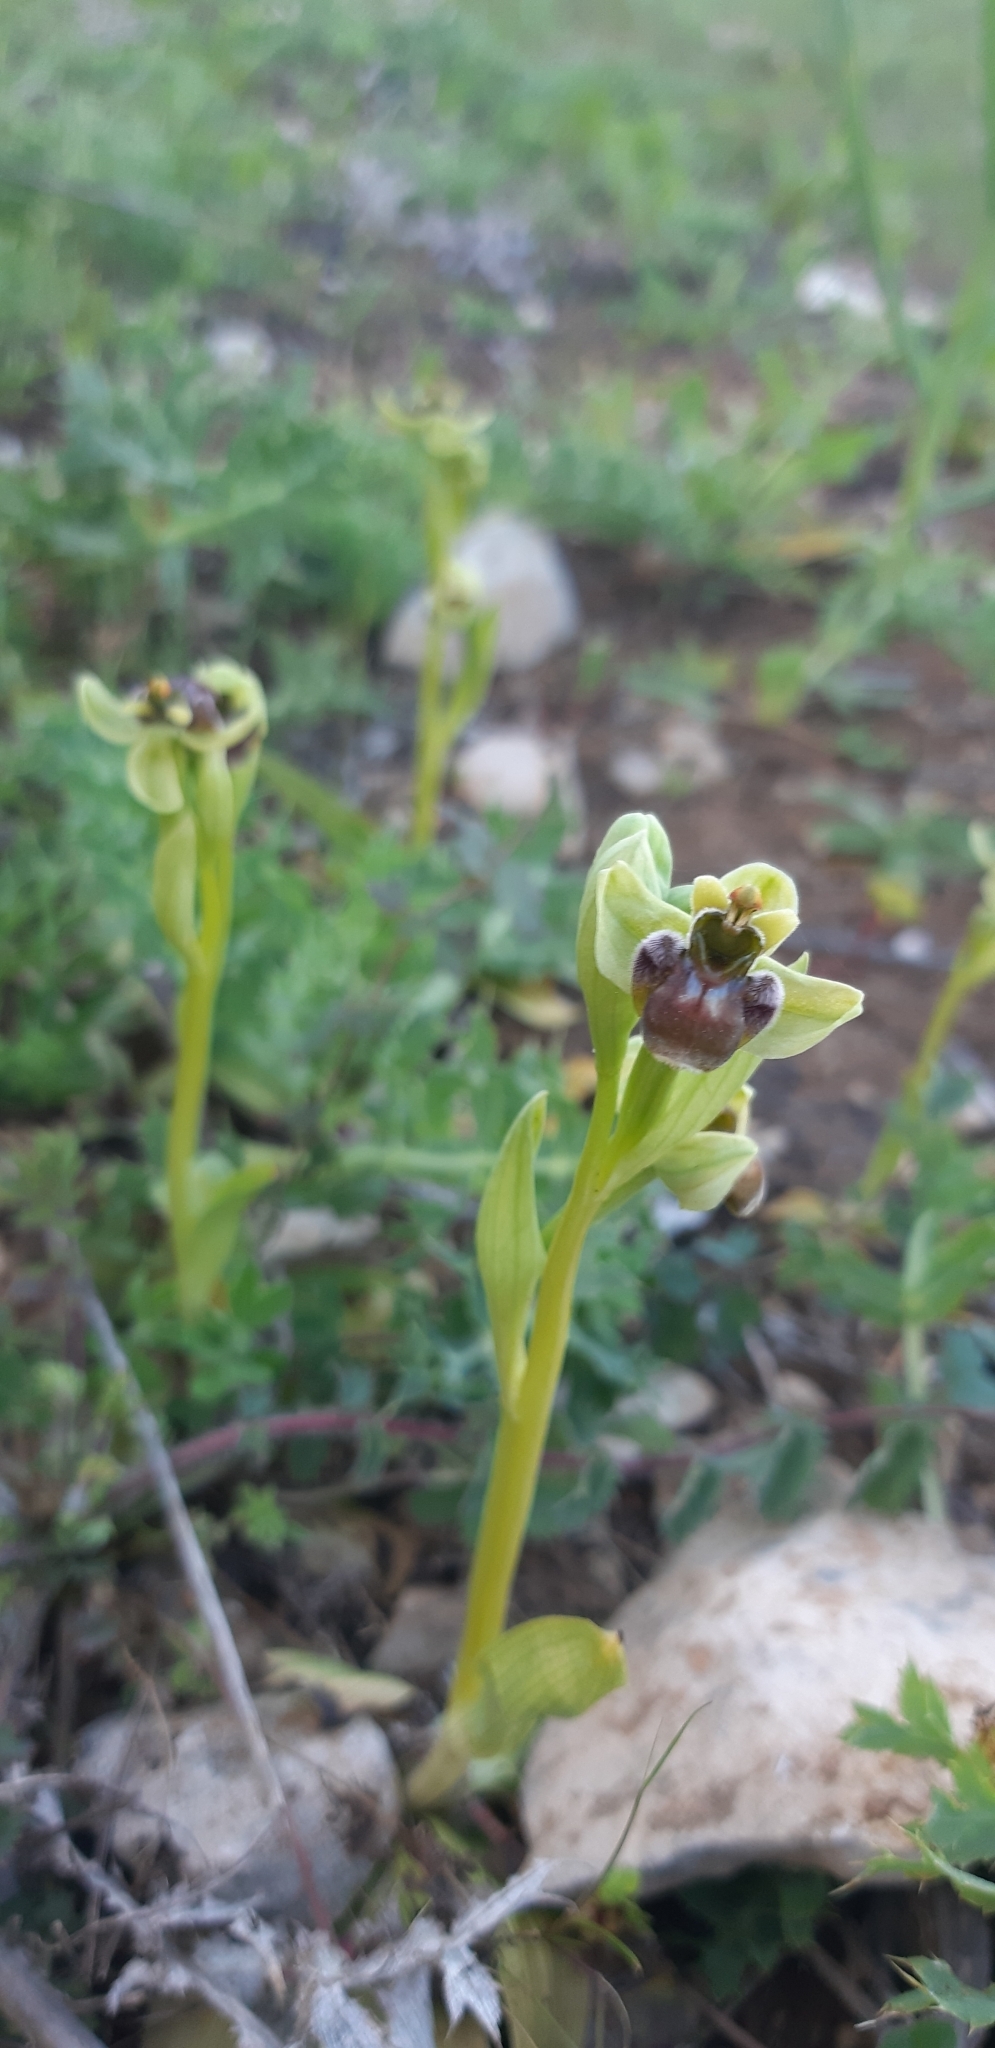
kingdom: Plantae
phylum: Tracheophyta
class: Liliopsida
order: Asparagales
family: Orchidaceae
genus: Ophrys
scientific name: Ophrys bombyliflora
